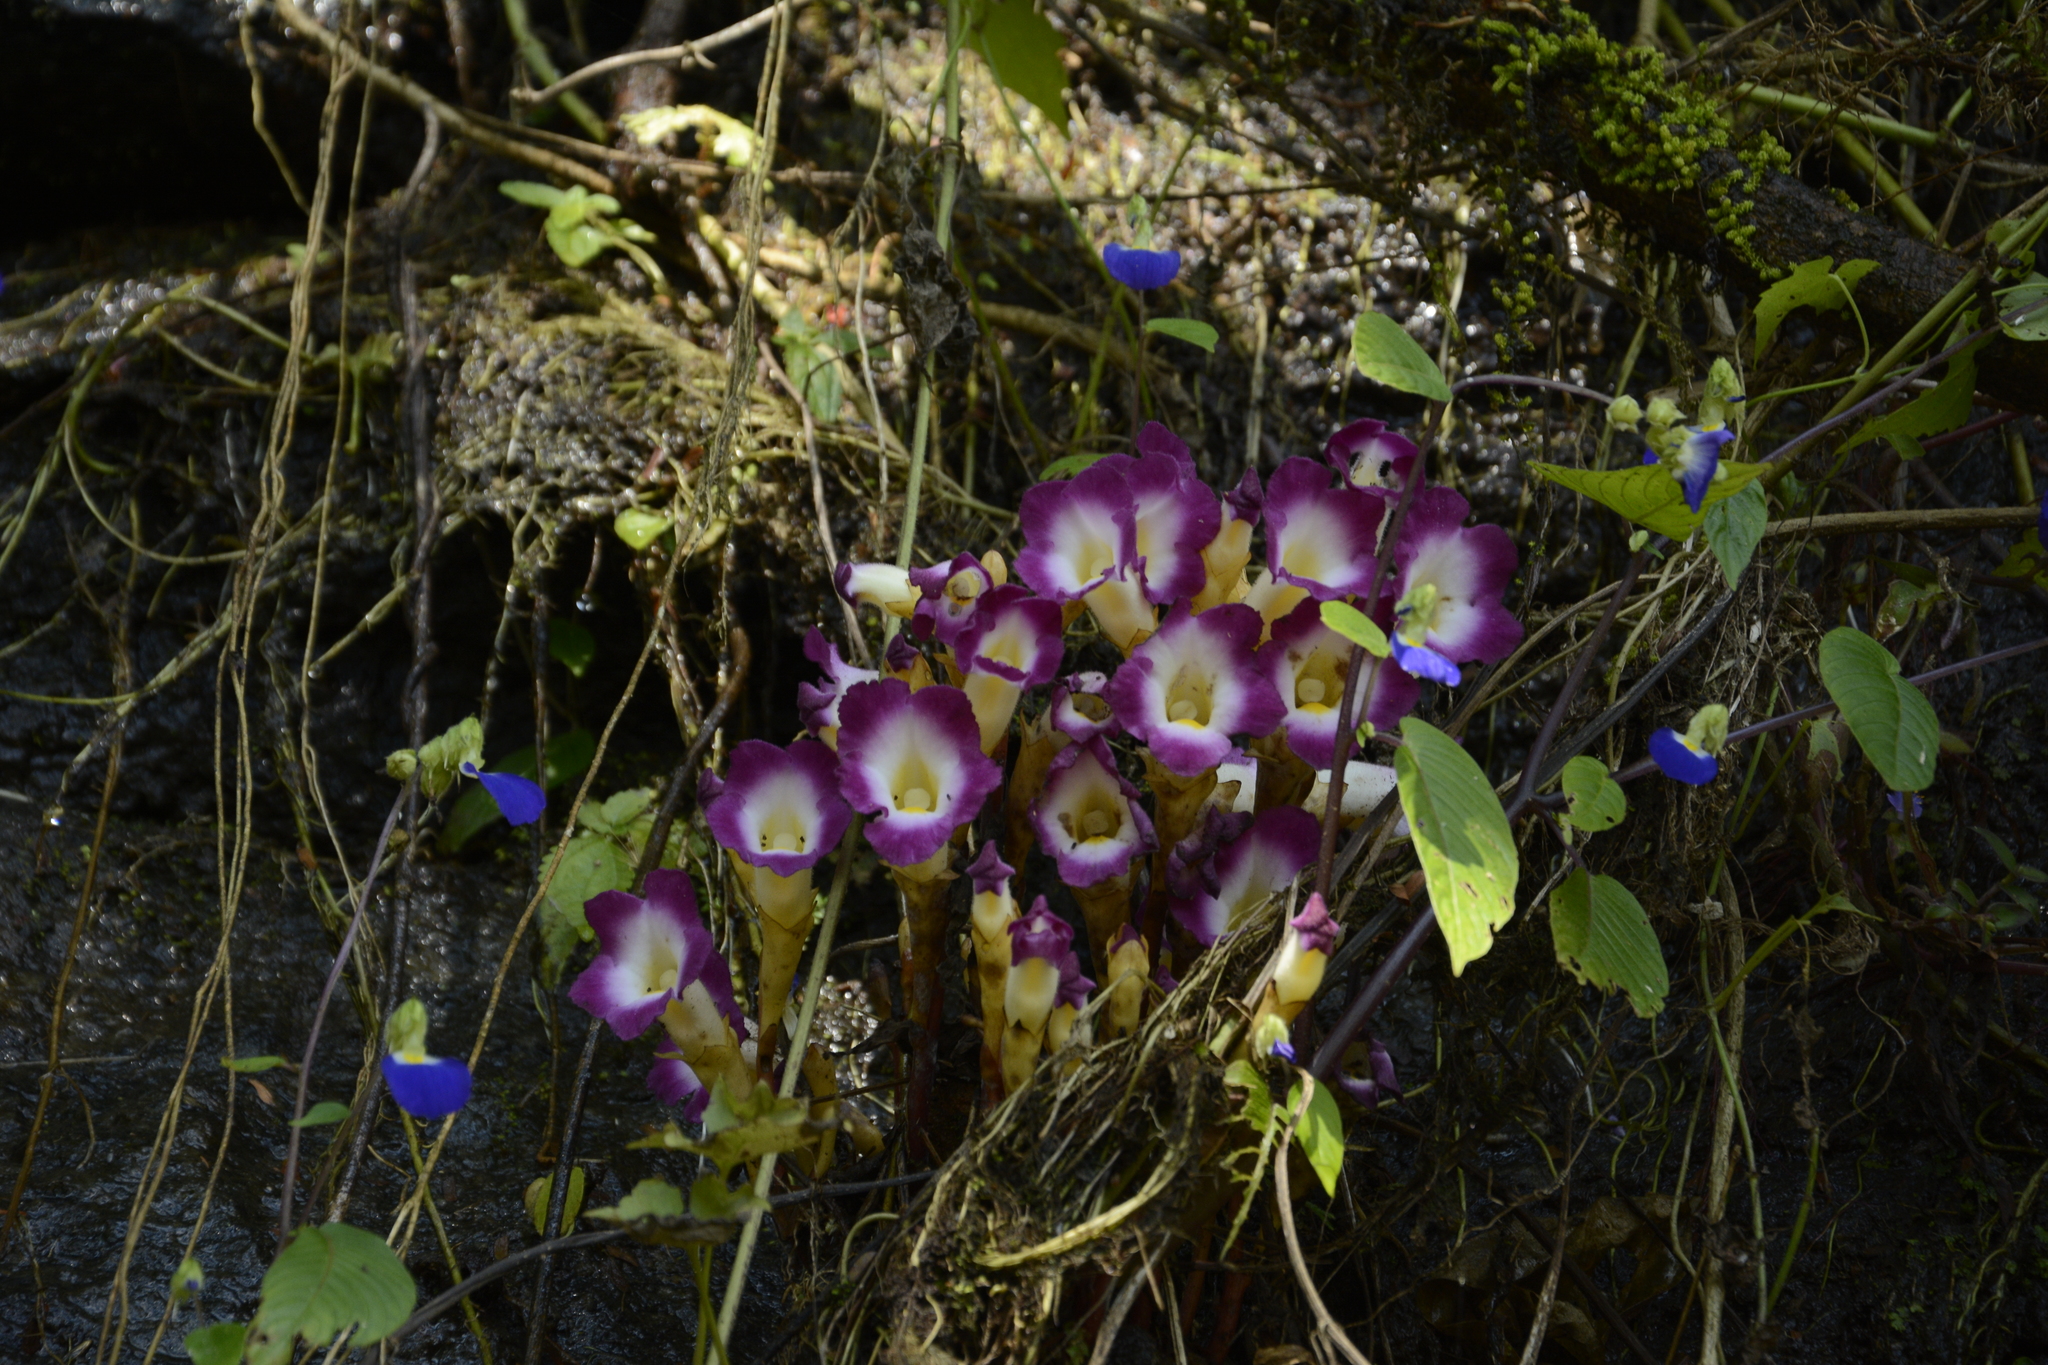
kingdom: Plantae
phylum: Tracheophyta
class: Magnoliopsida
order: Lamiales
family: Orobanchaceae
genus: Christisonia
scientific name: Christisonia tubulosa
